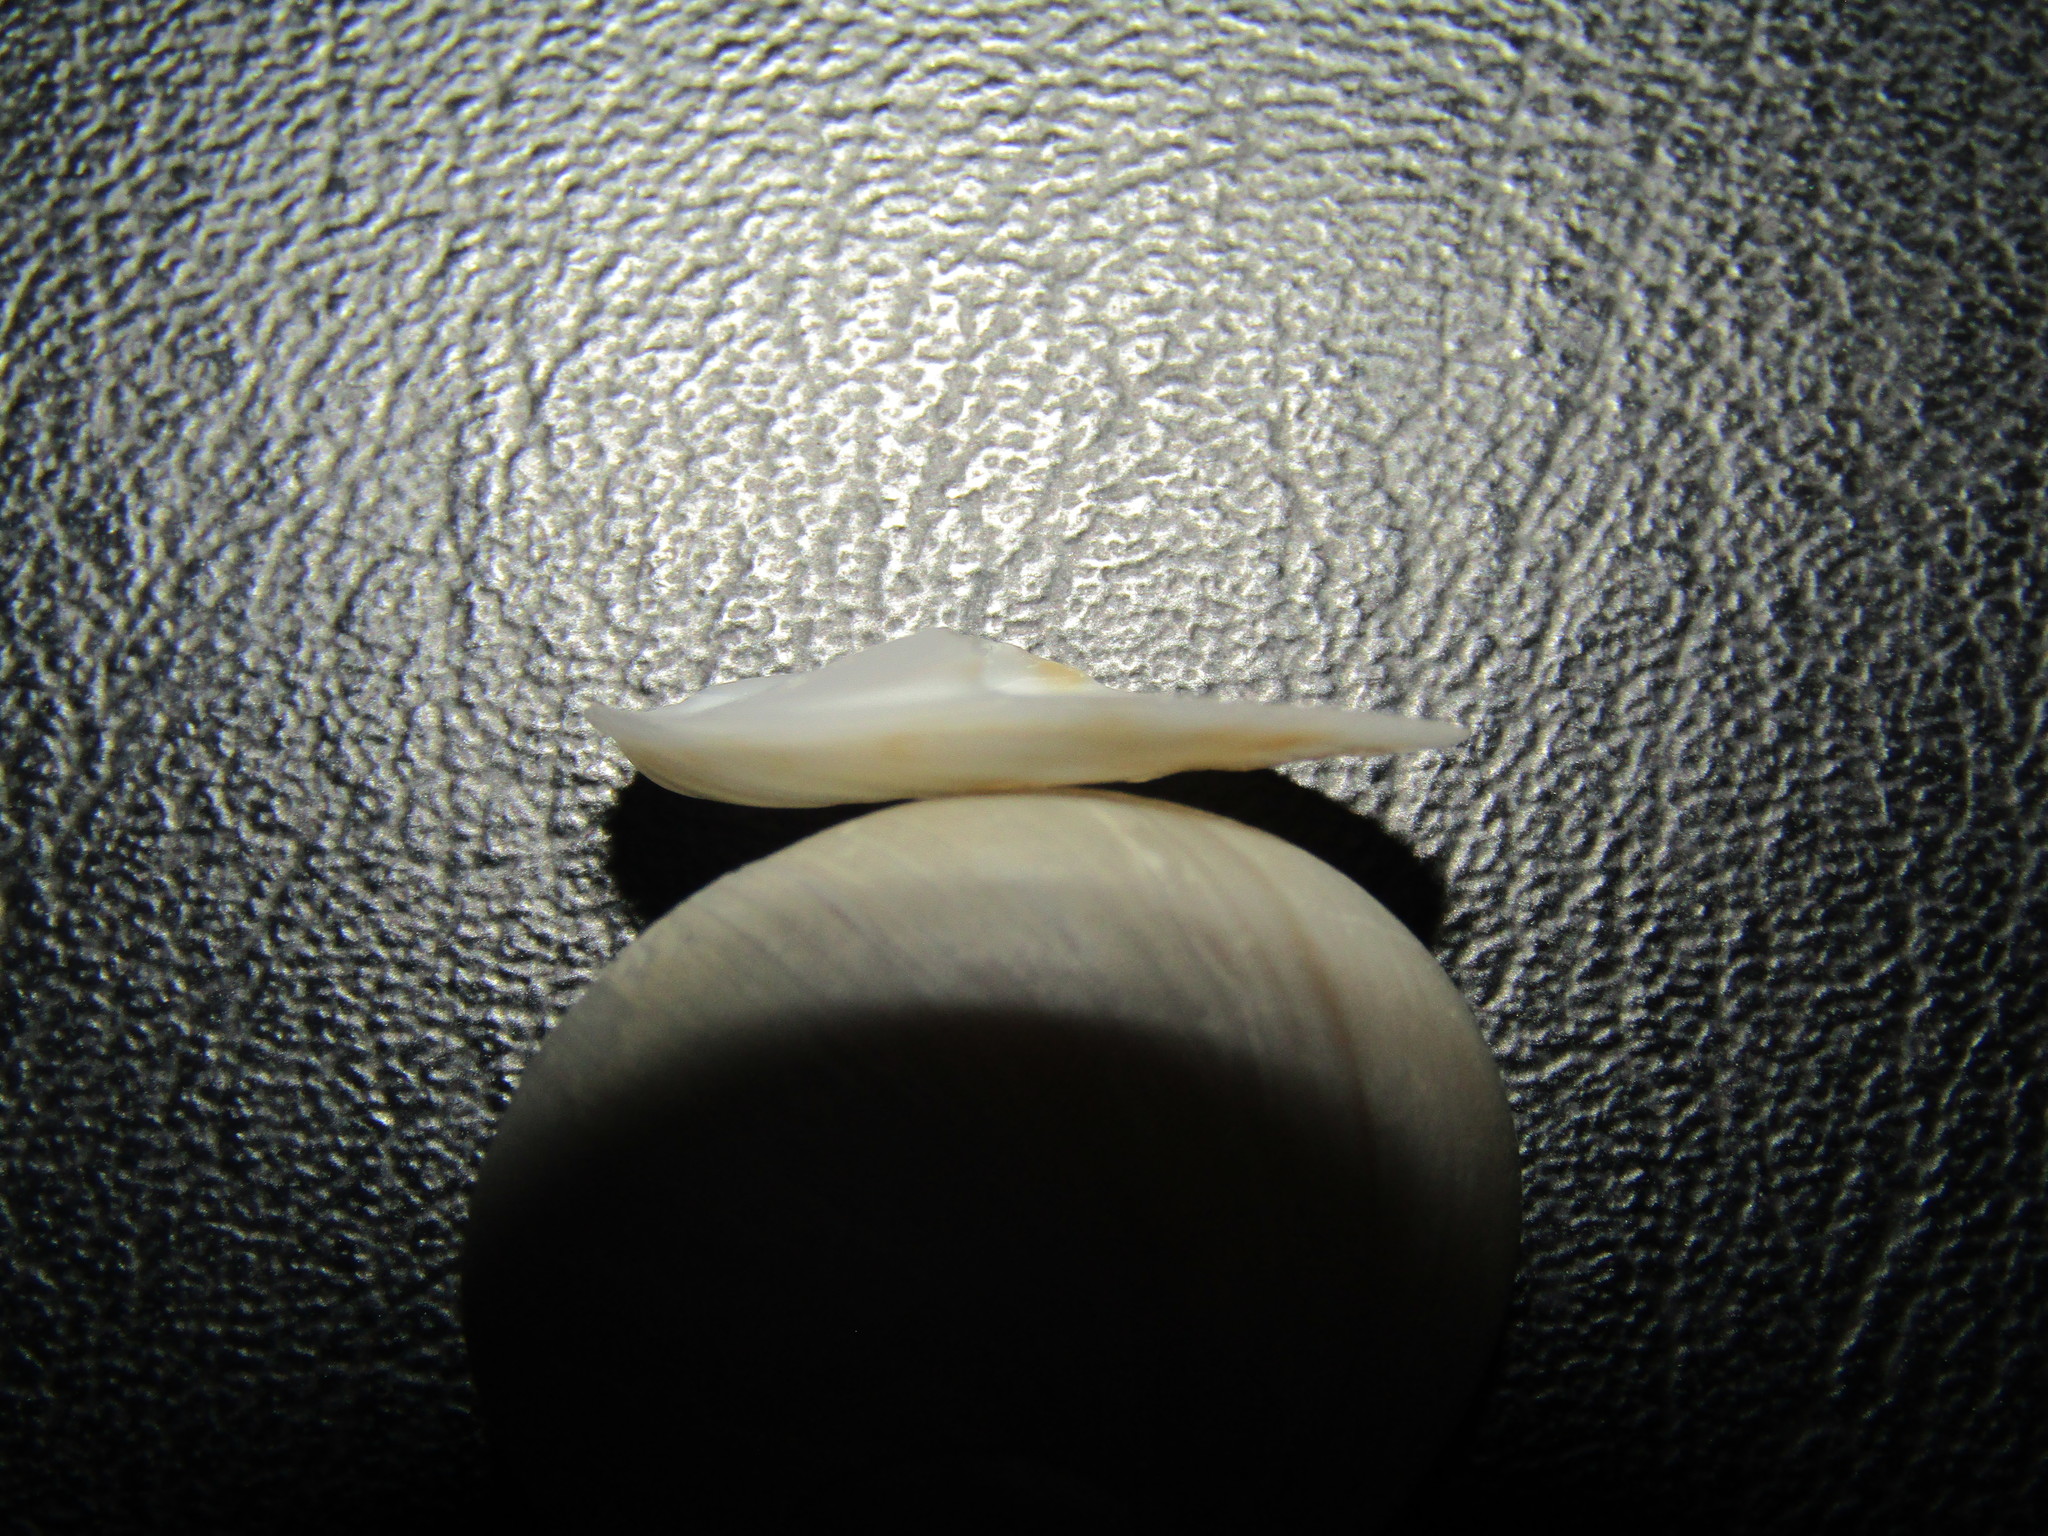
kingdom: Animalia
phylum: Mollusca
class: Gastropoda
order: Littorinimorpha
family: Calyptraeidae
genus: Crepidula
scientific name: Crepidula fornicata
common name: Slipper limpet
